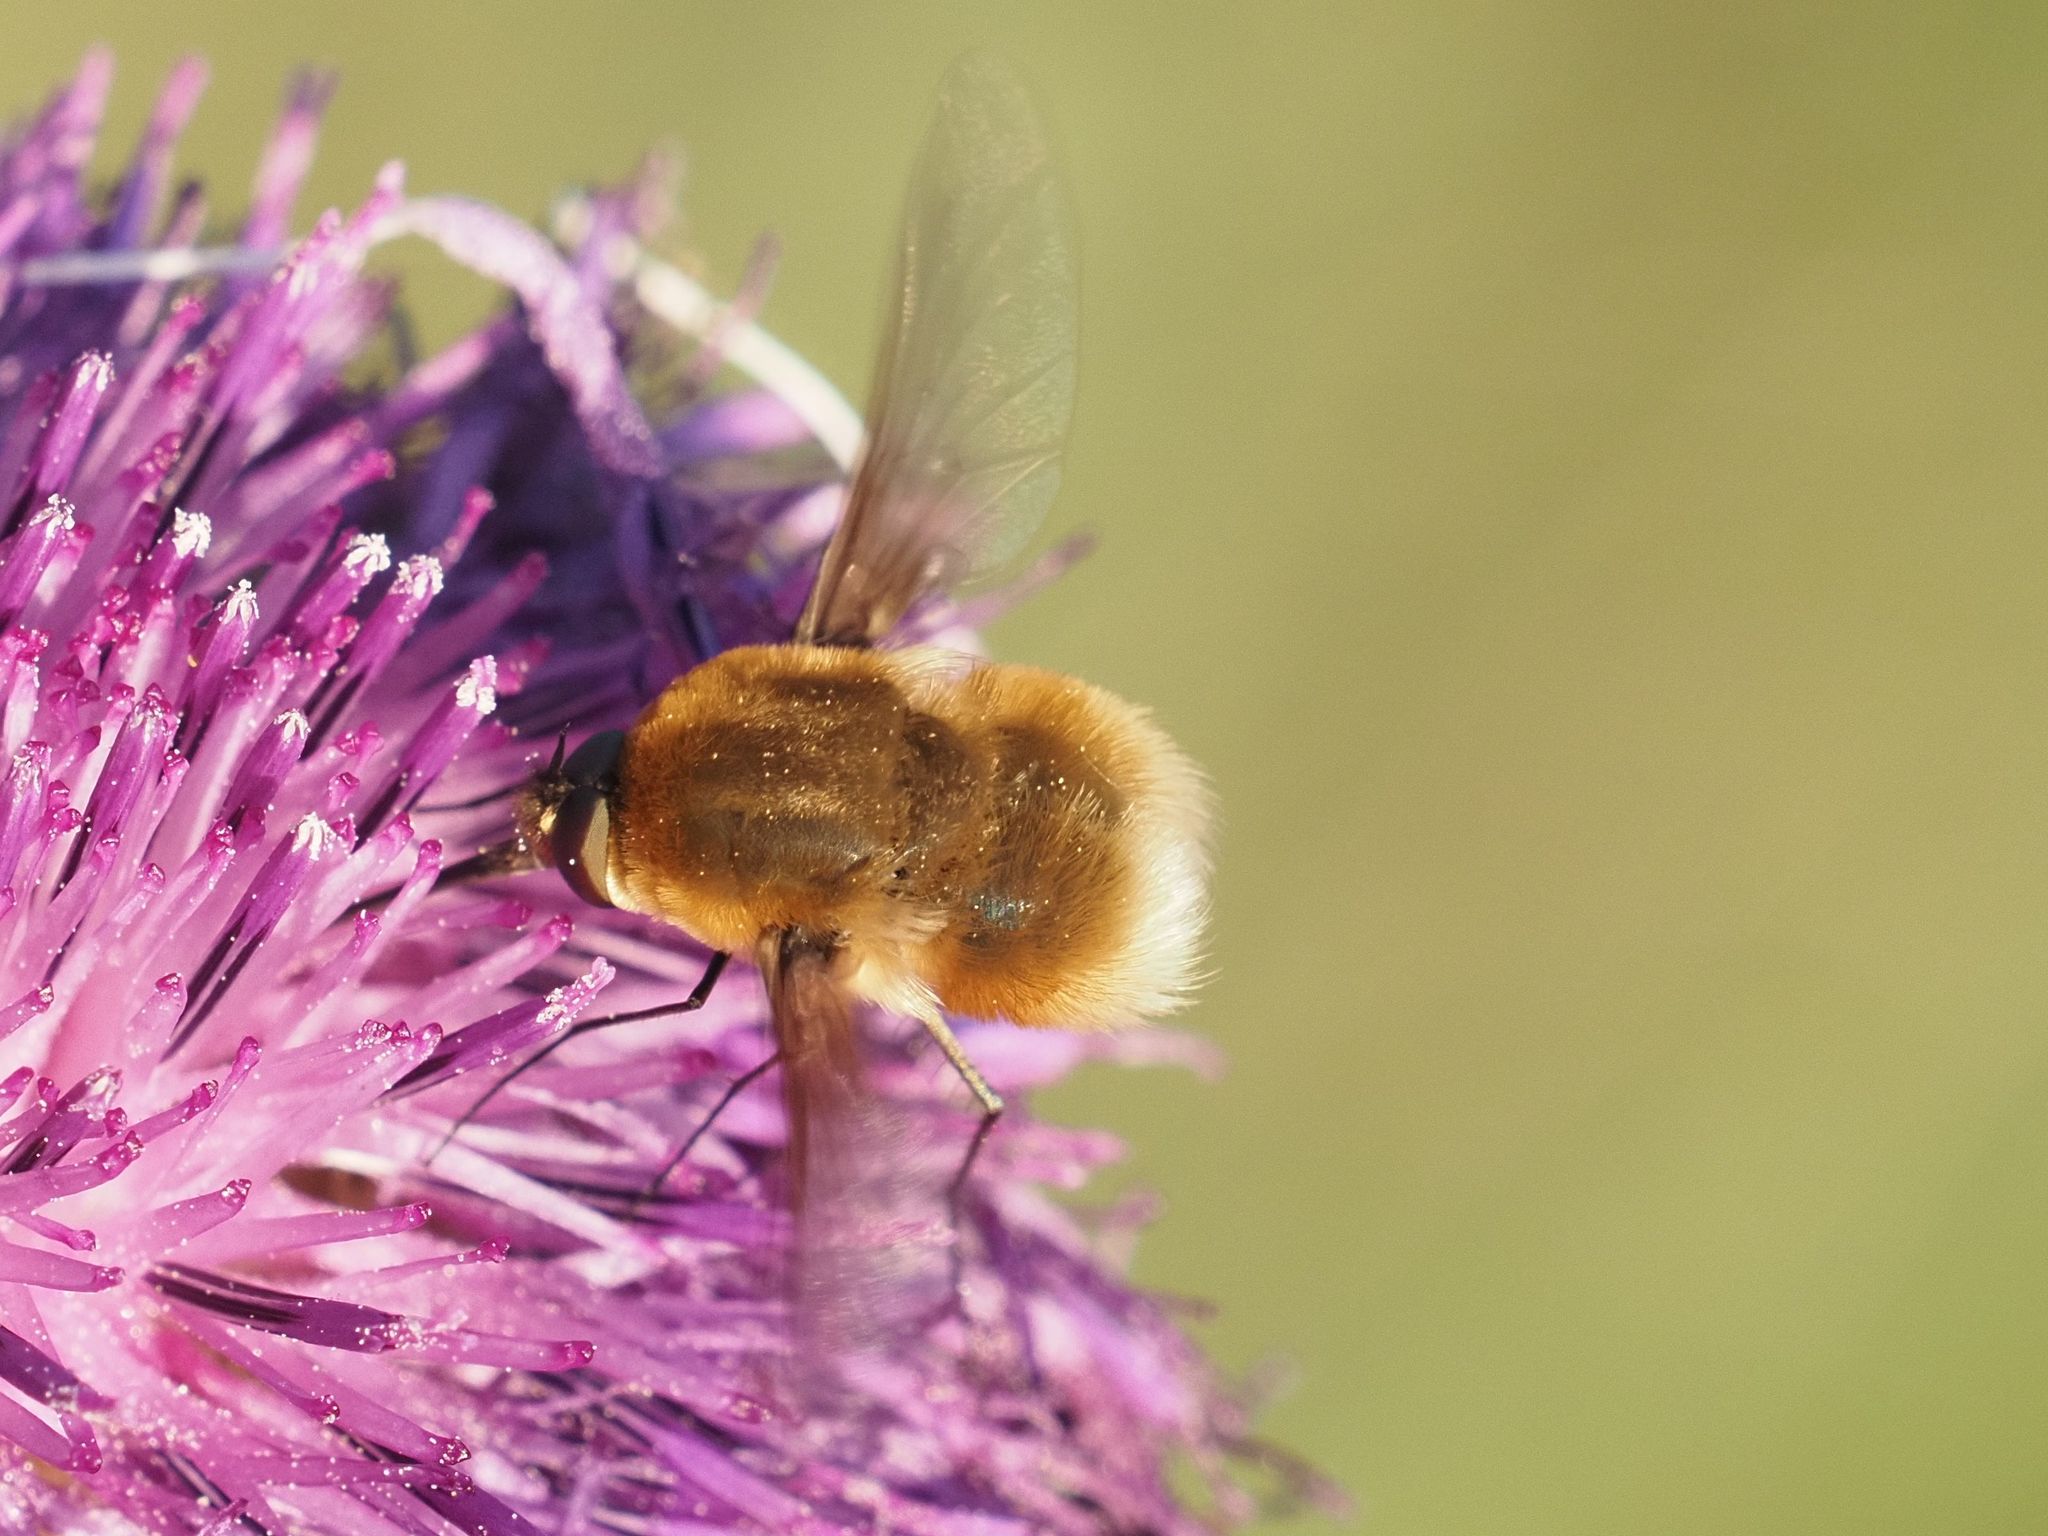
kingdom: Animalia
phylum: Arthropoda
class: Insecta
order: Diptera
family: Bombyliidae
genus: Bombylius
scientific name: Bombylius posticus
